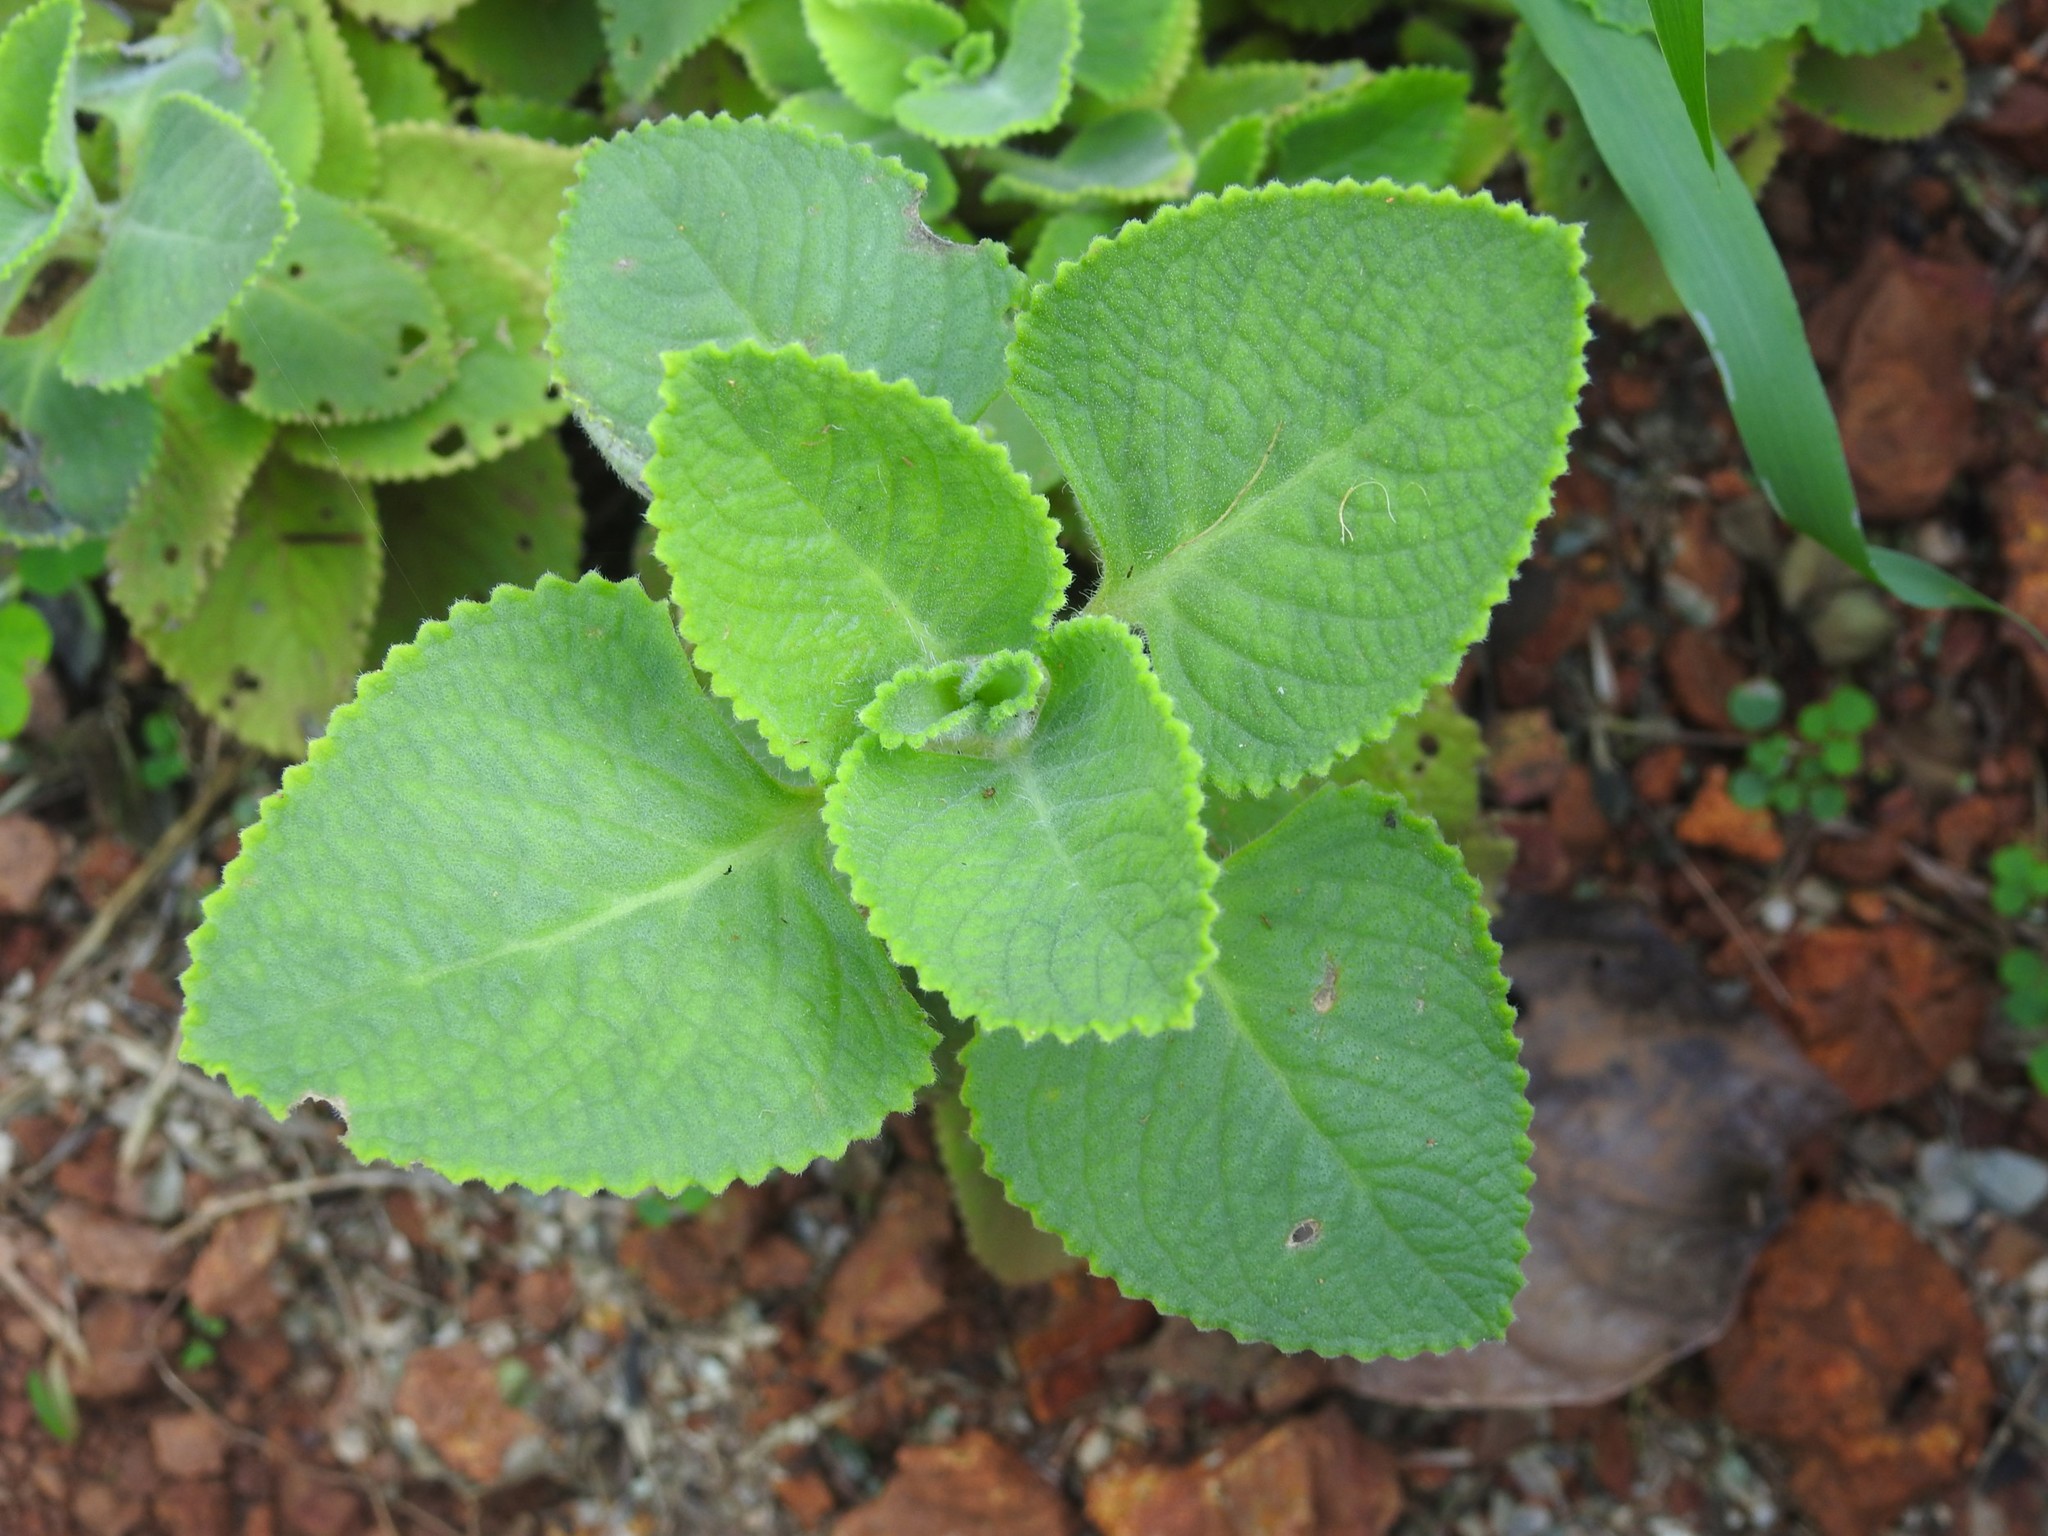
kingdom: Plantae
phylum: Tracheophyta
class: Magnoliopsida
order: Lamiales
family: Lamiaceae
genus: Coleus
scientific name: Coleus amboinicus
